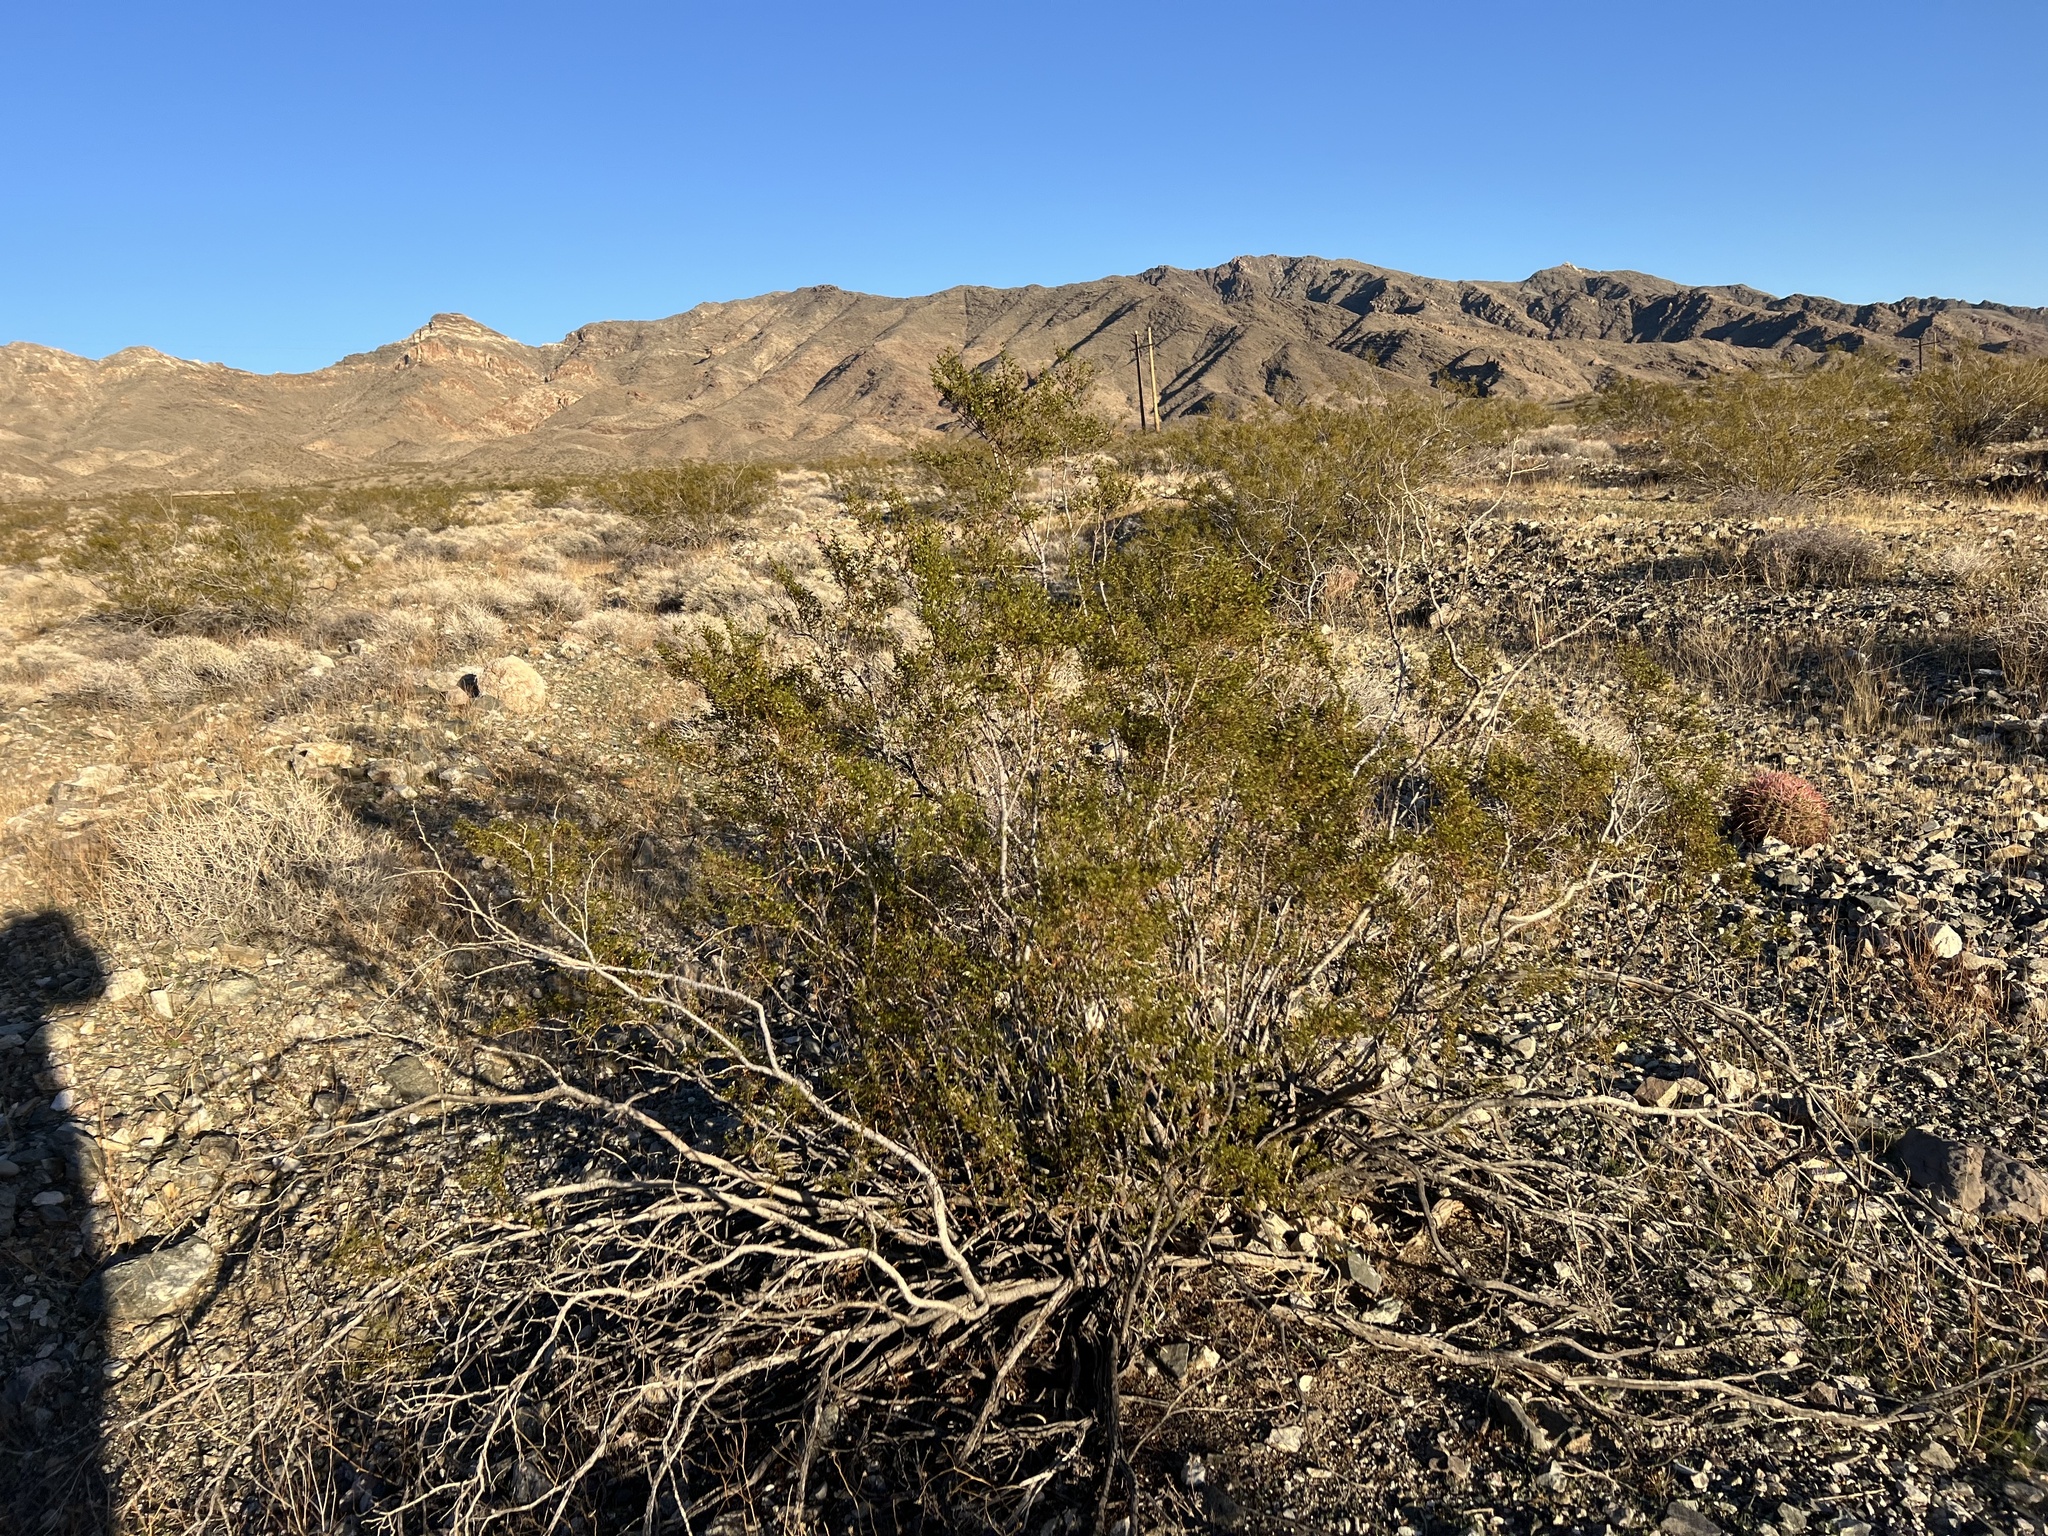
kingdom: Plantae
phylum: Tracheophyta
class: Magnoliopsida
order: Zygophyllales
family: Zygophyllaceae
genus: Larrea
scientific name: Larrea tridentata
